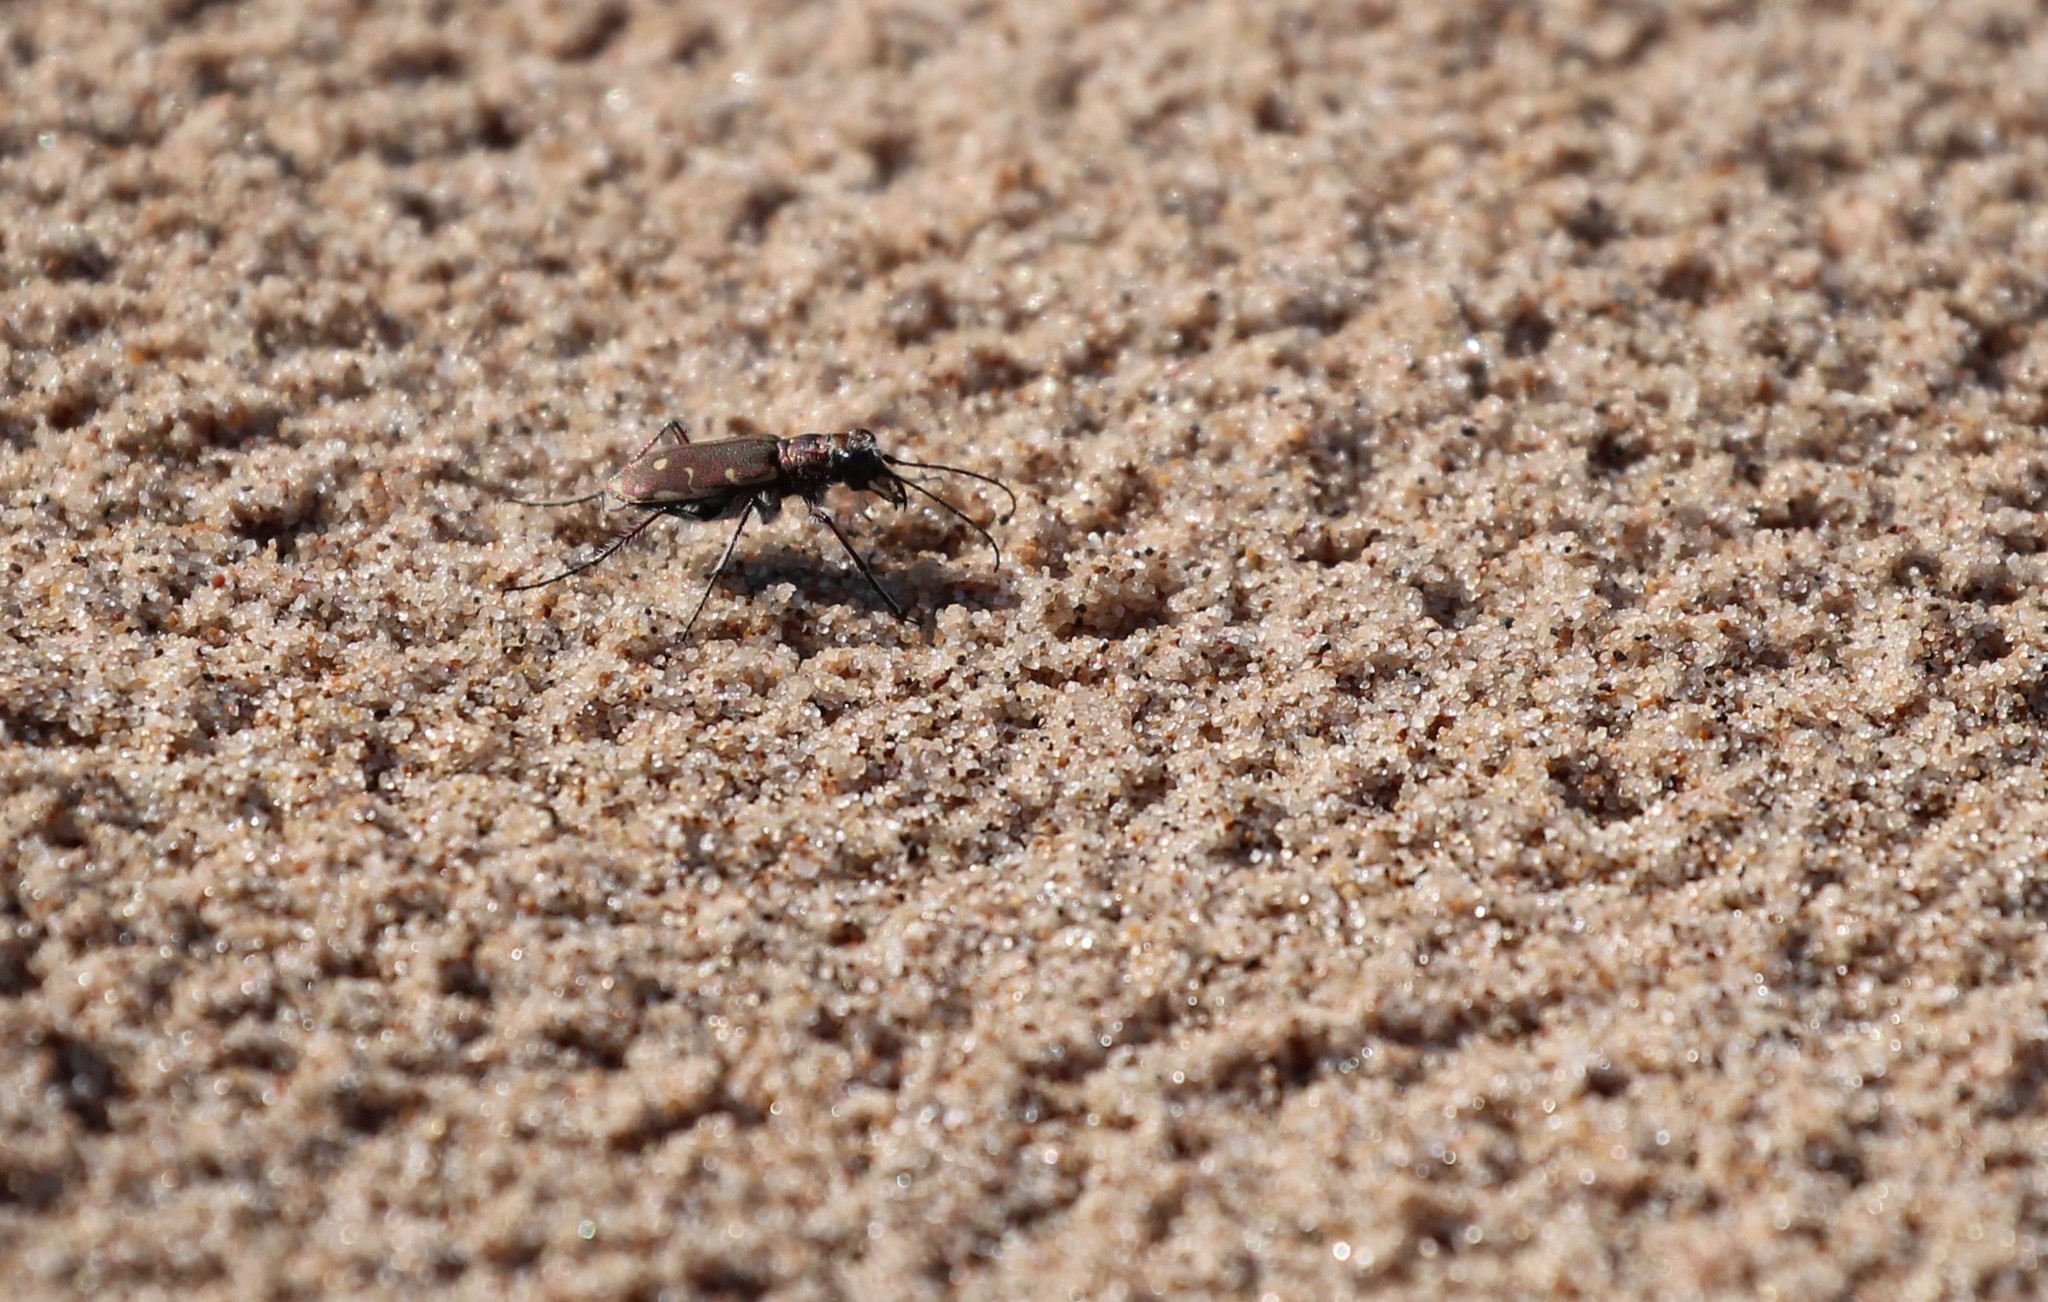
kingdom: Animalia
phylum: Arthropoda
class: Insecta
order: Coleoptera
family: Carabidae
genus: Cicindela
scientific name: Cicindela repanda
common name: Bronzed tiger beetle
